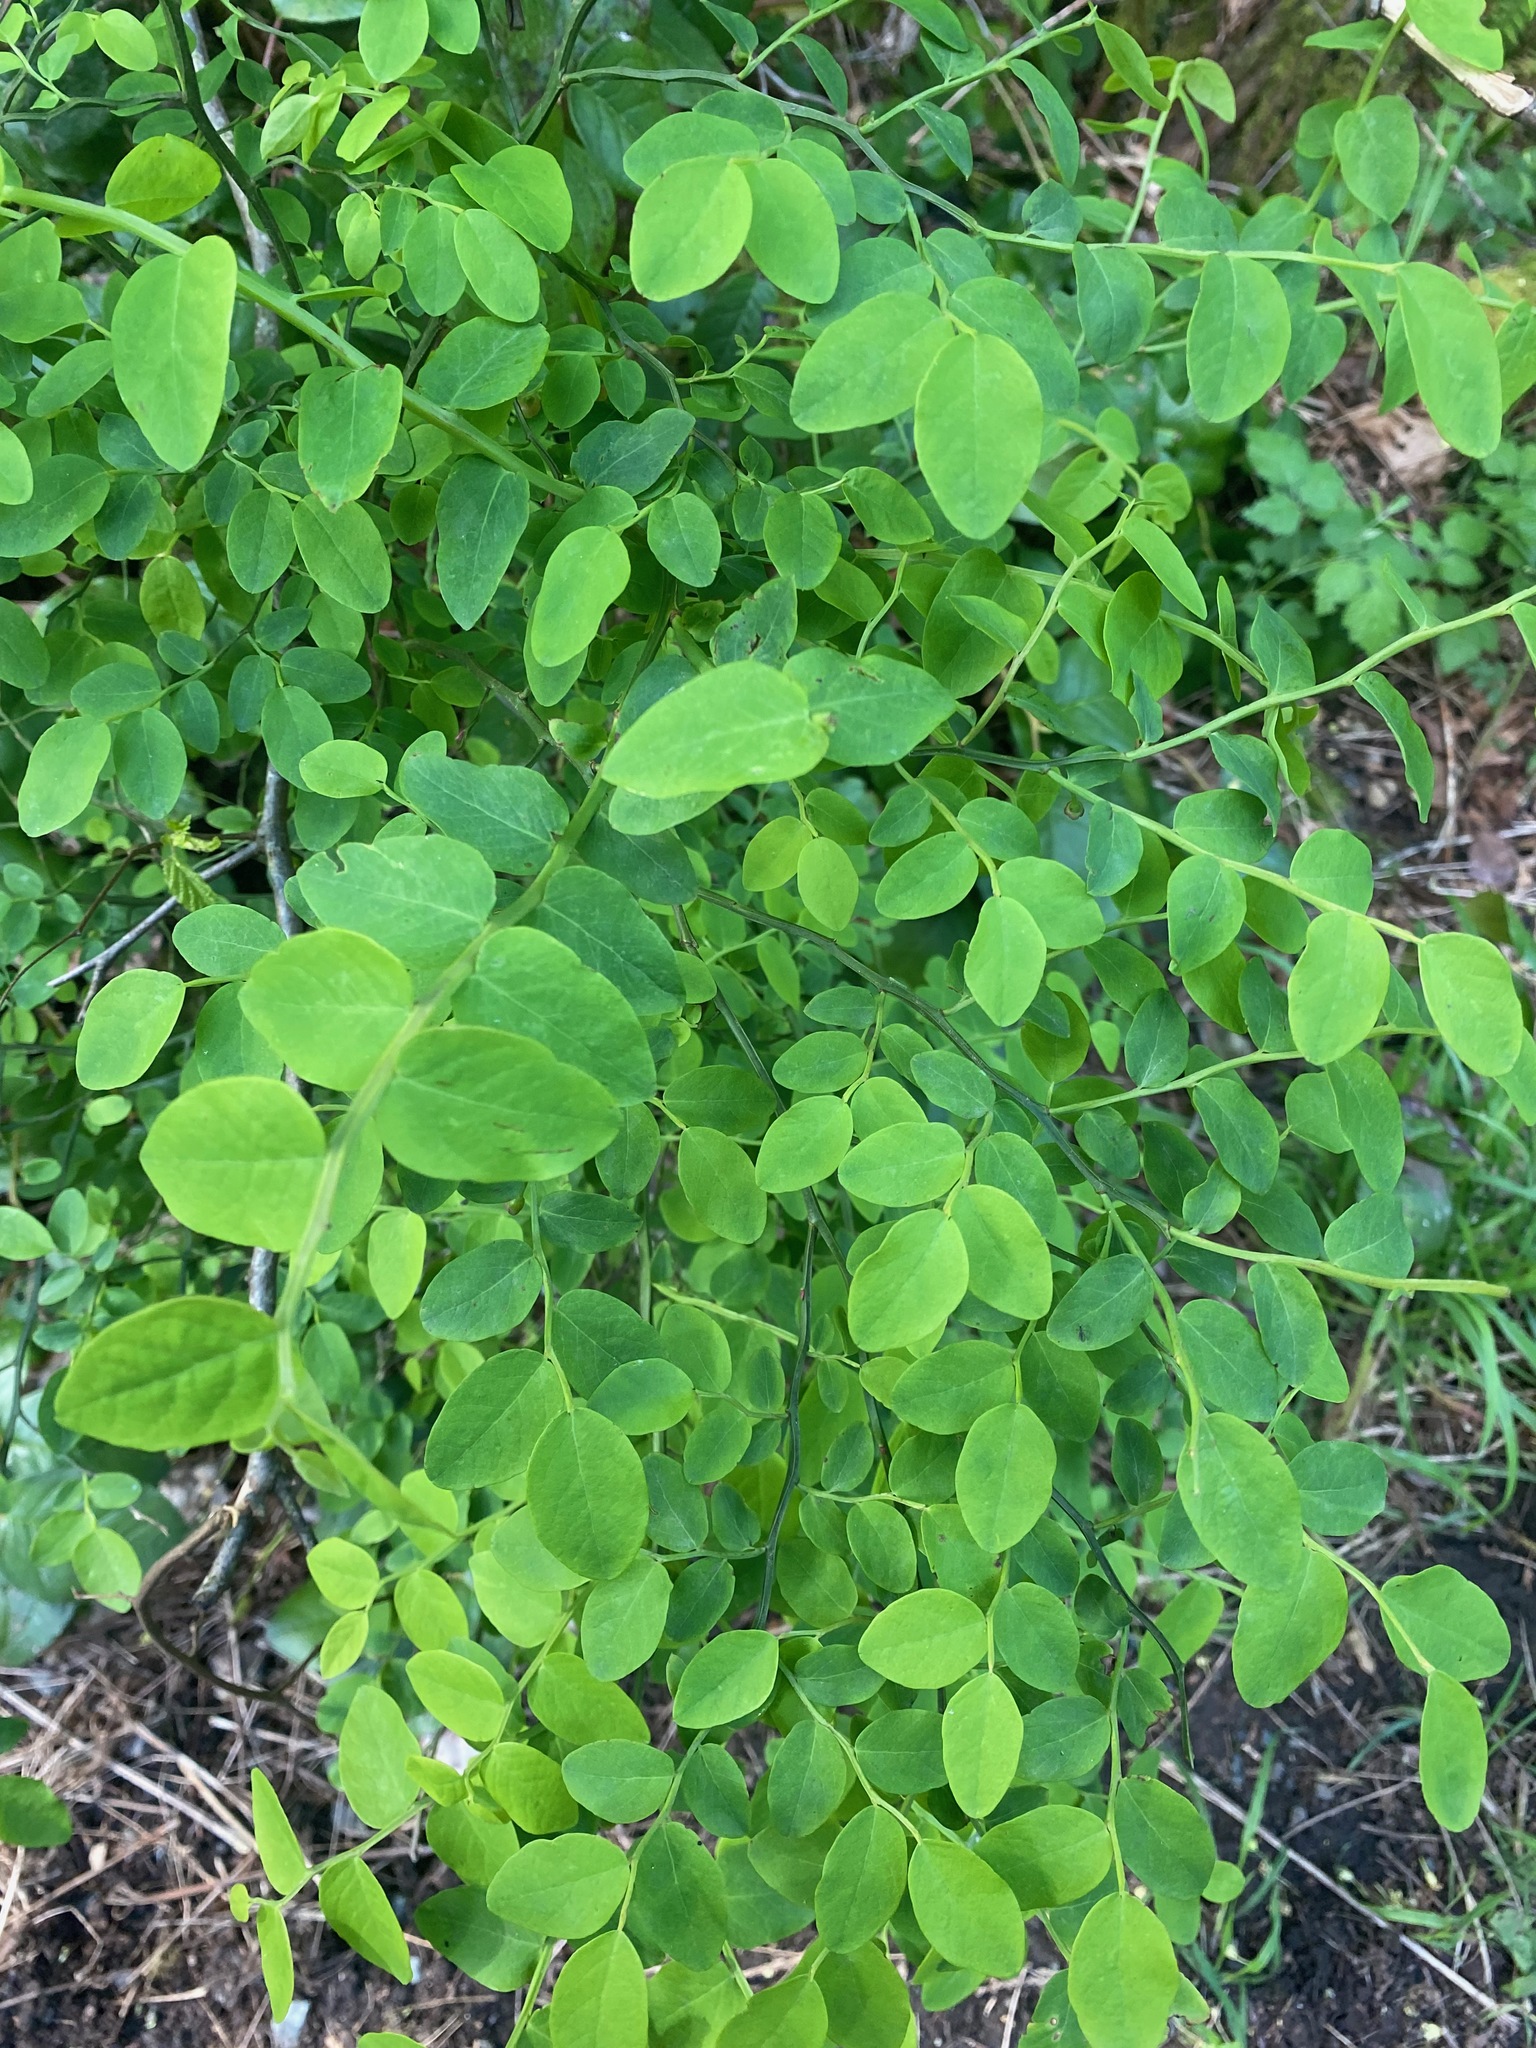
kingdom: Plantae
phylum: Tracheophyta
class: Magnoliopsida
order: Ericales
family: Ericaceae
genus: Vaccinium
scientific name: Vaccinium parvifolium
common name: Red-huckleberry
